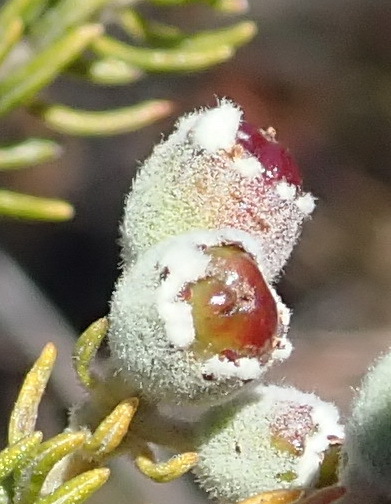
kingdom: Plantae
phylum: Tracheophyta
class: Magnoliopsida
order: Rosales
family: Rhamnaceae
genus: Phylica
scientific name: Phylica purpurea
